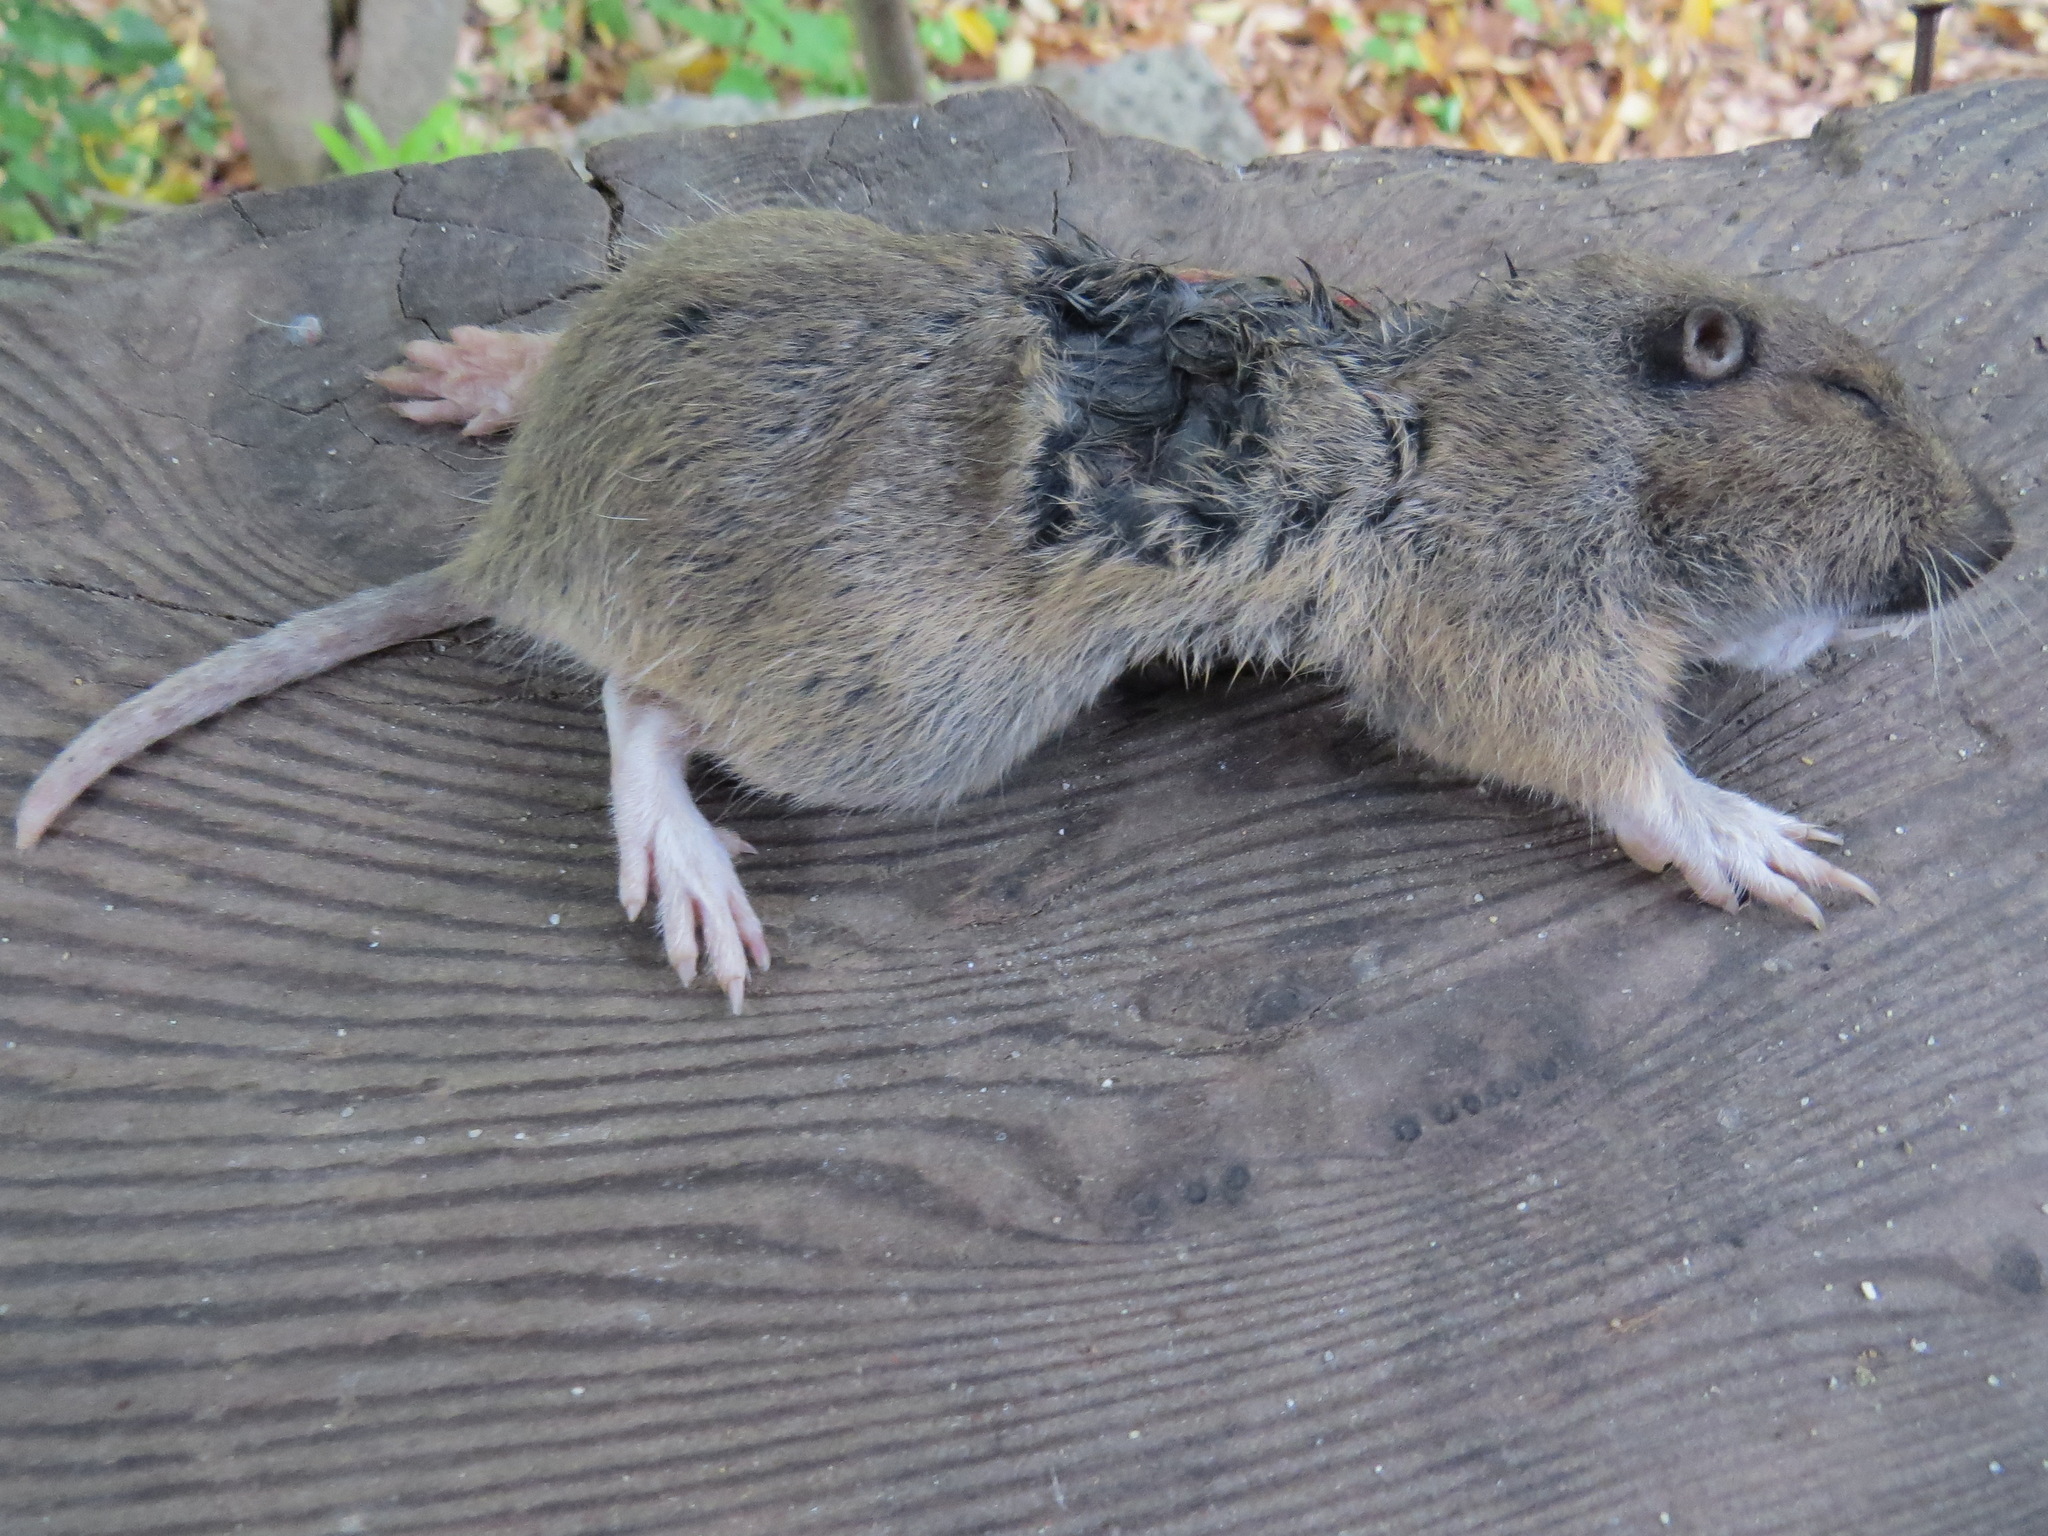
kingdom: Animalia
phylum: Chordata
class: Mammalia
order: Rodentia
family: Geomyidae
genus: Thomomys
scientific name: Thomomys bottae
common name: Botta's pocket gopher
